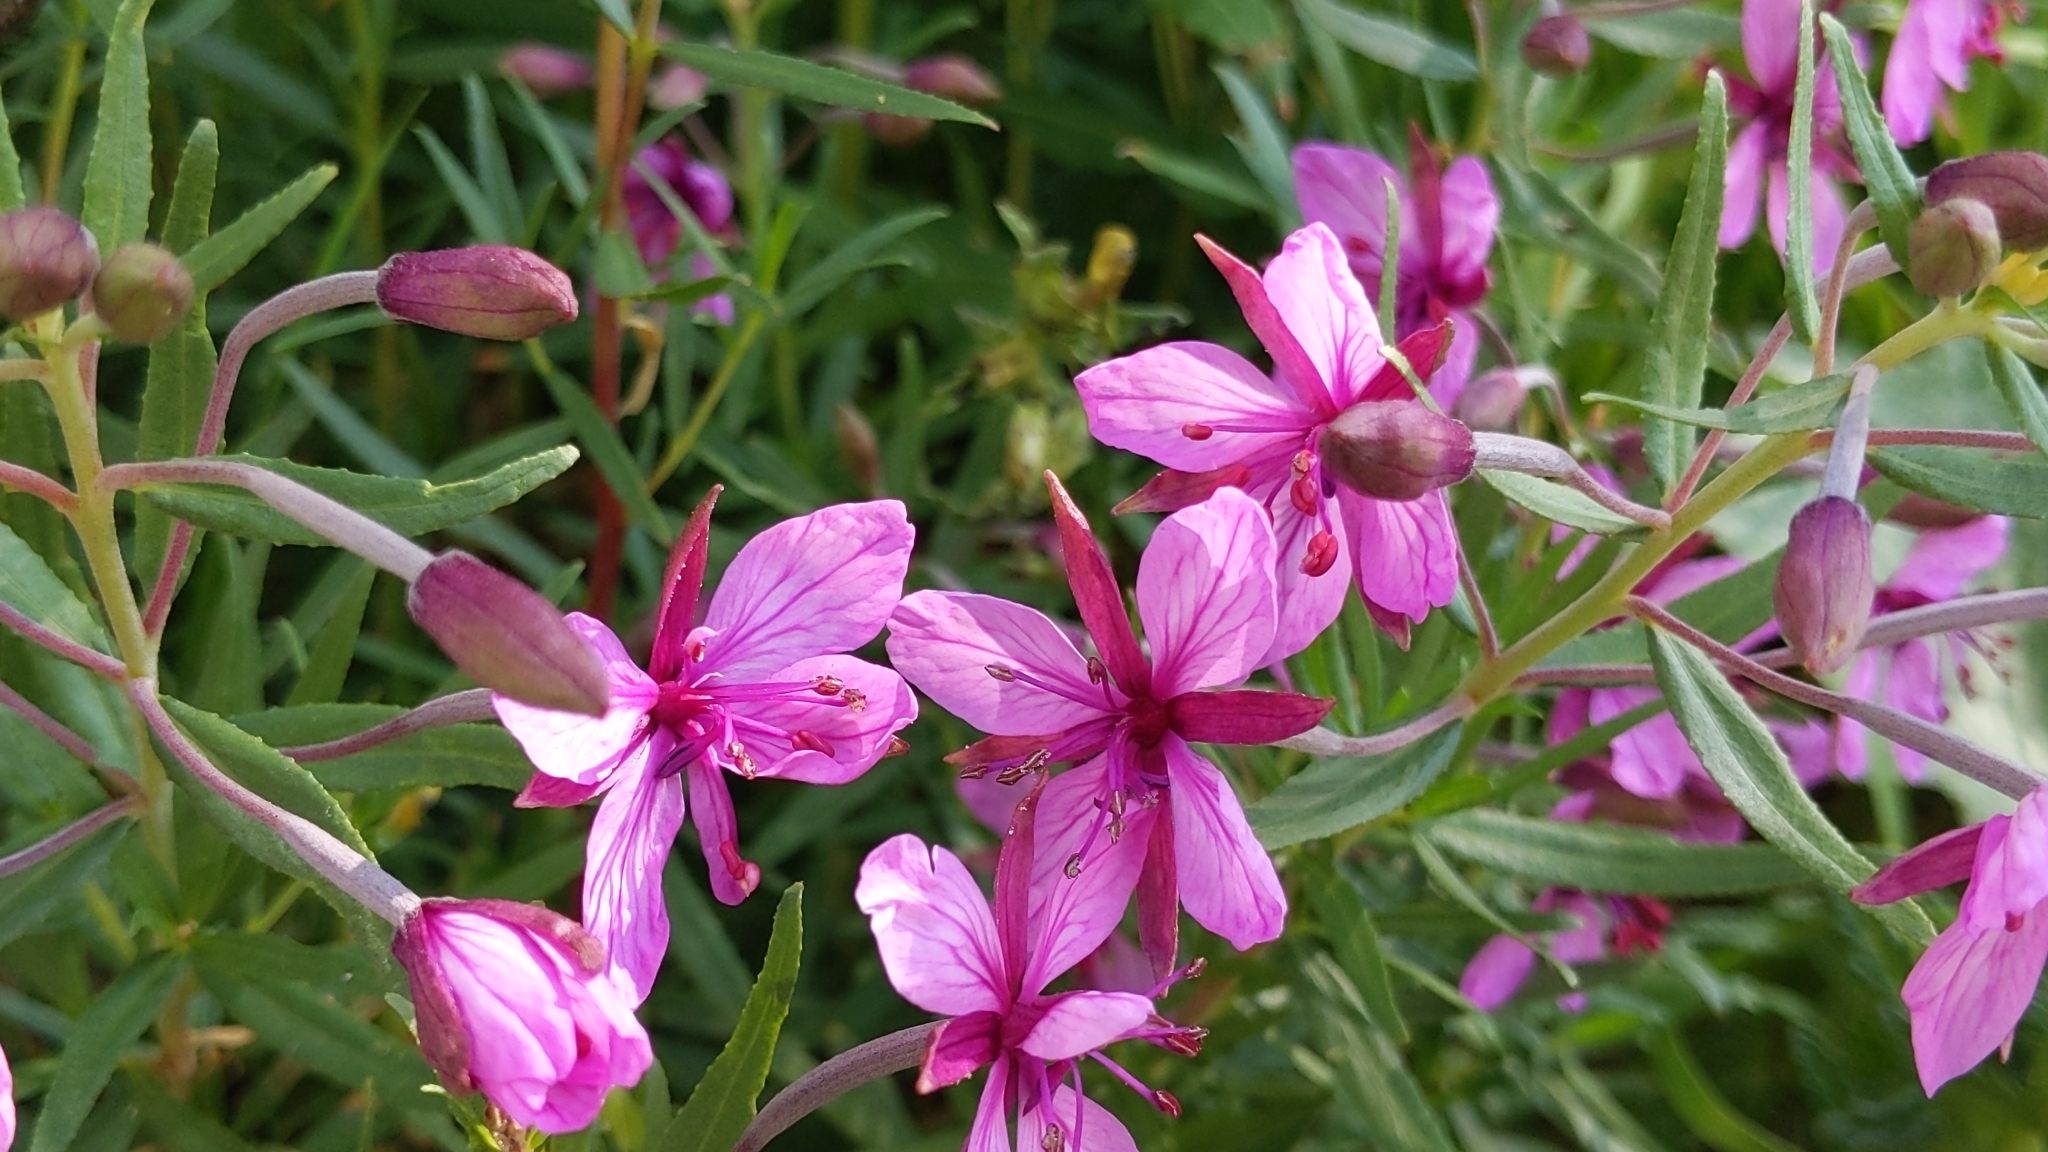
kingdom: Plantae
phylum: Tracheophyta
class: Magnoliopsida
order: Myrtales
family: Onagraceae
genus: Chamaenerion
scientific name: Chamaenerion fleischeri
